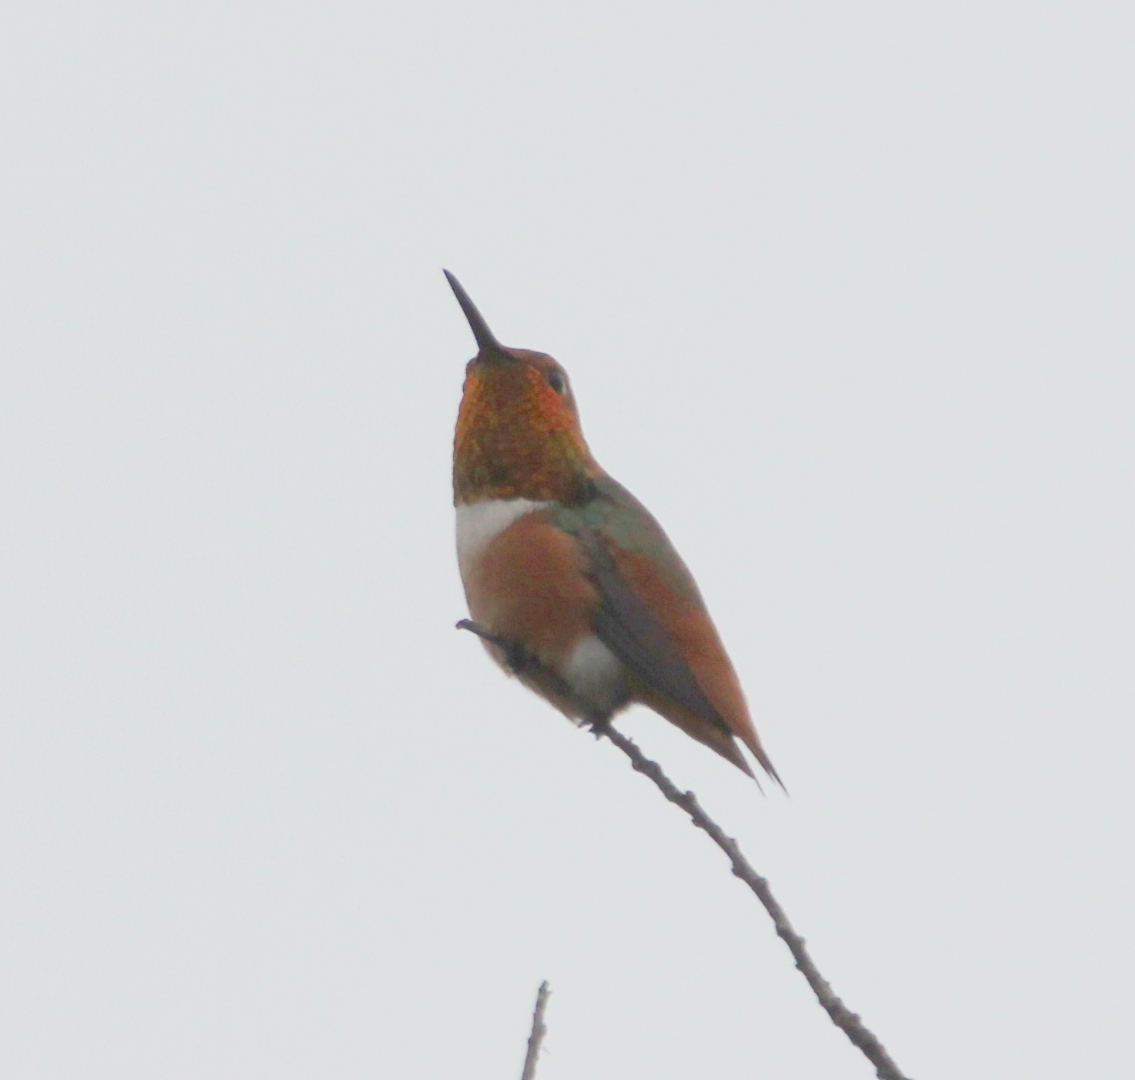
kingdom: Animalia
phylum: Chordata
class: Aves
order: Apodiformes
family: Trochilidae
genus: Selasphorus
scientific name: Selasphorus sasin
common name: Allen's hummingbird
